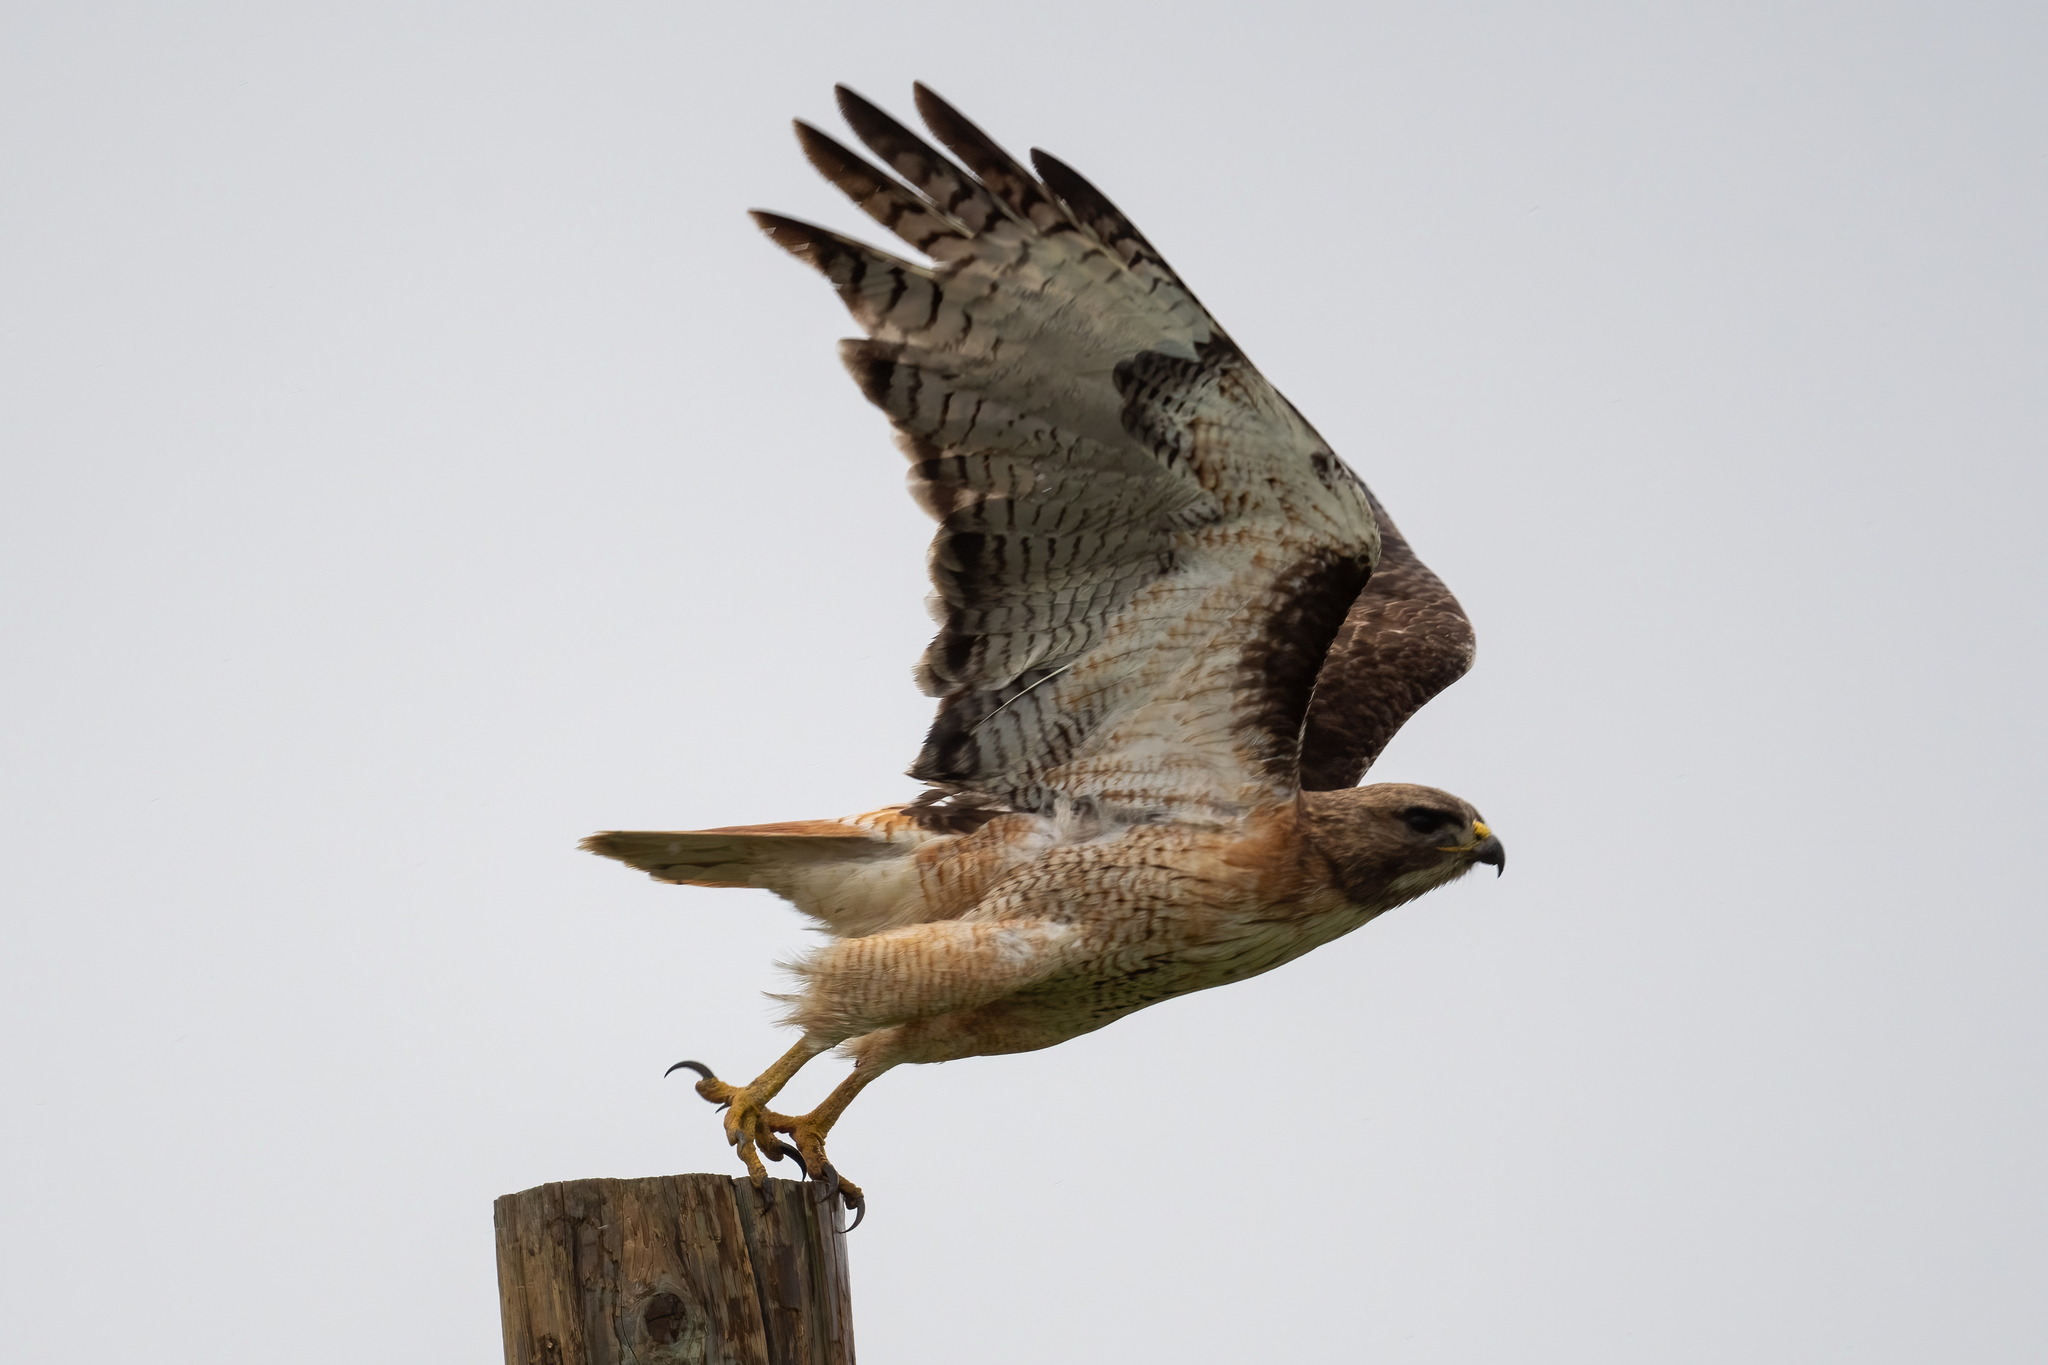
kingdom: Animalia
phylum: Chordata
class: Aves
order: Accipitriformes
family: Accipitridae
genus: Buteo
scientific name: Buteo jamaicensis
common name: Red-tailed hawk
